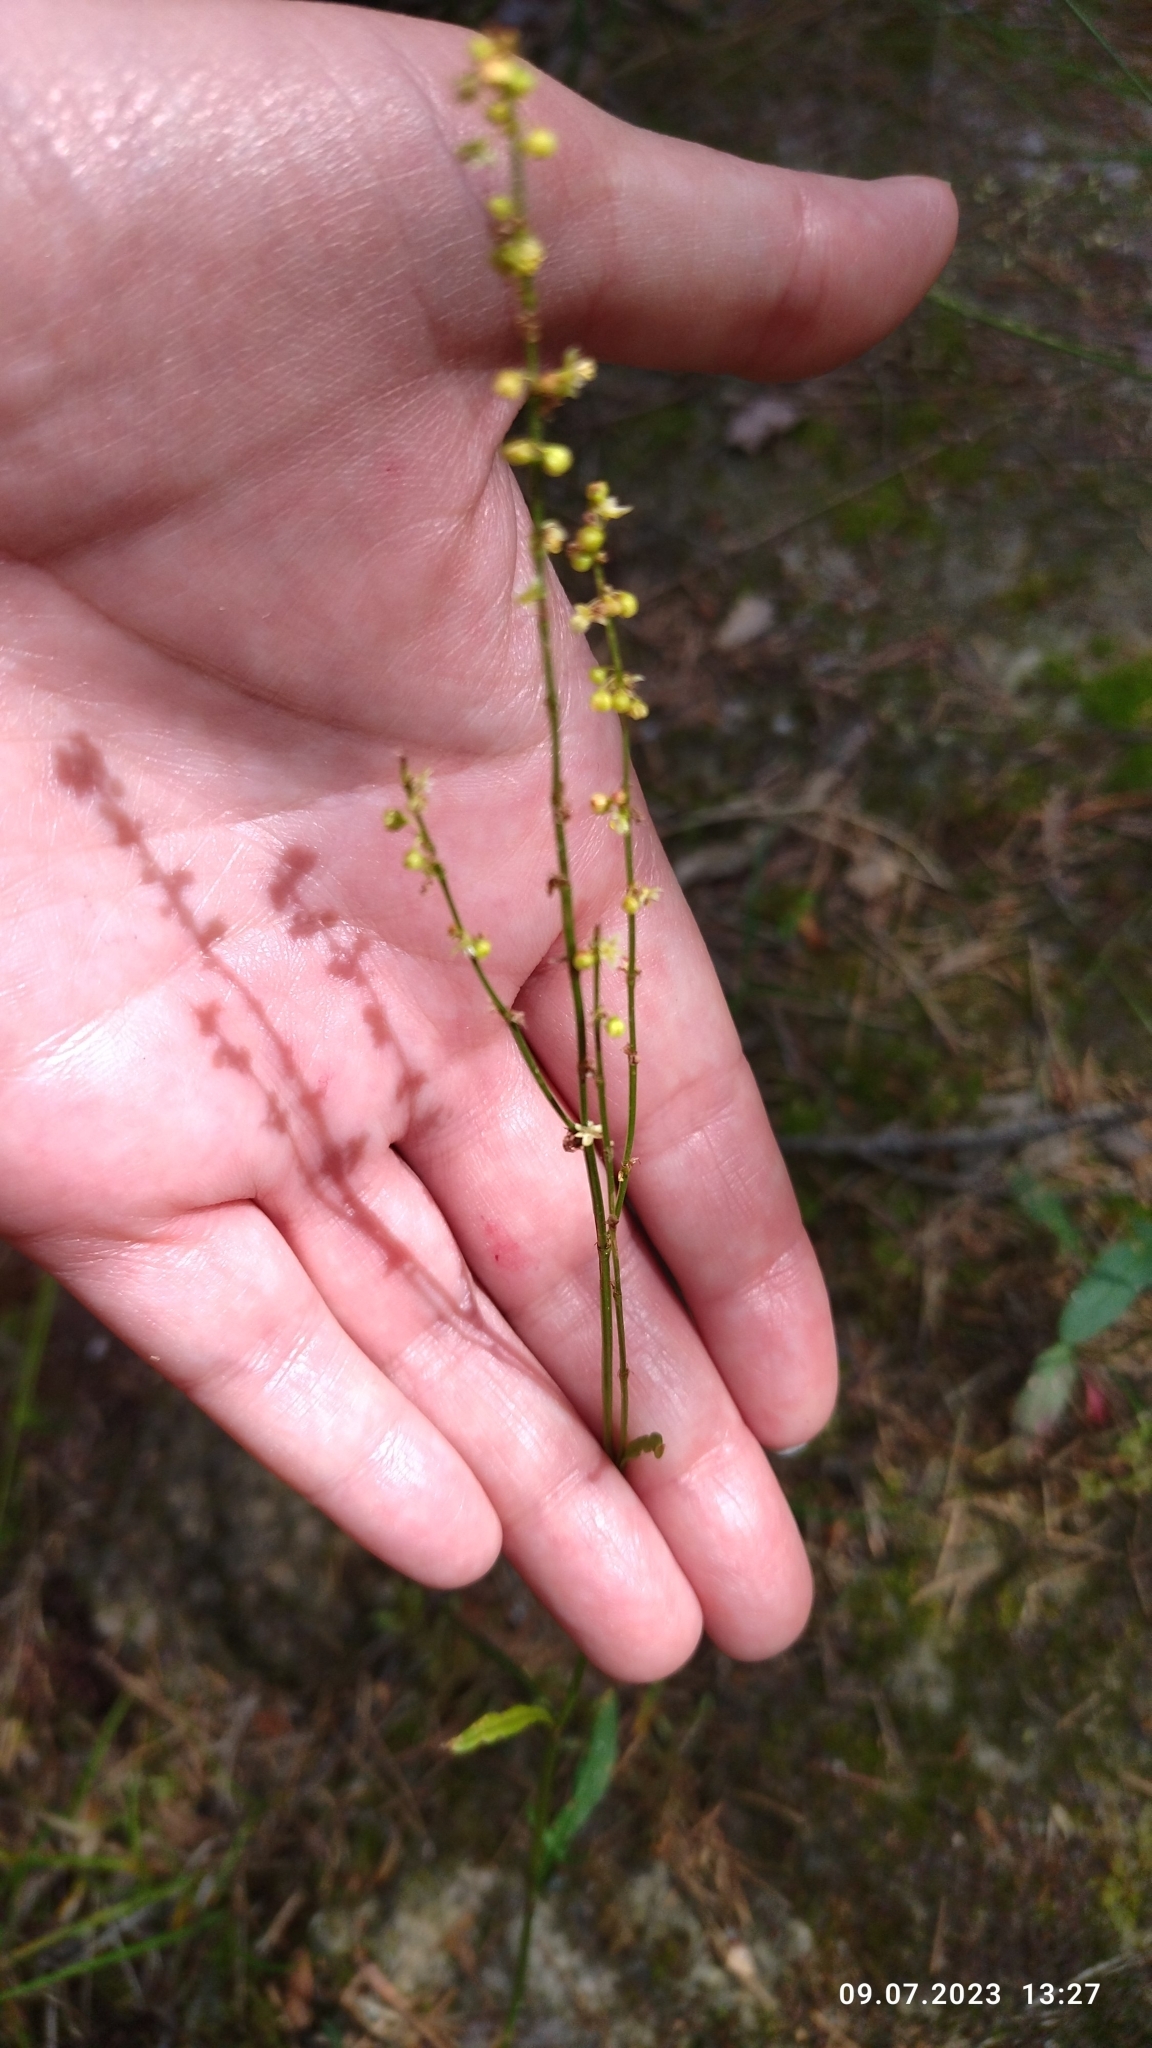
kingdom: Plantae
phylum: Tracheophyta
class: Magnoliopsida
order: Caryophyllales
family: Polygonaceae
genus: Rumex
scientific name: Rumex acetosella
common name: Common sheep sorrel
